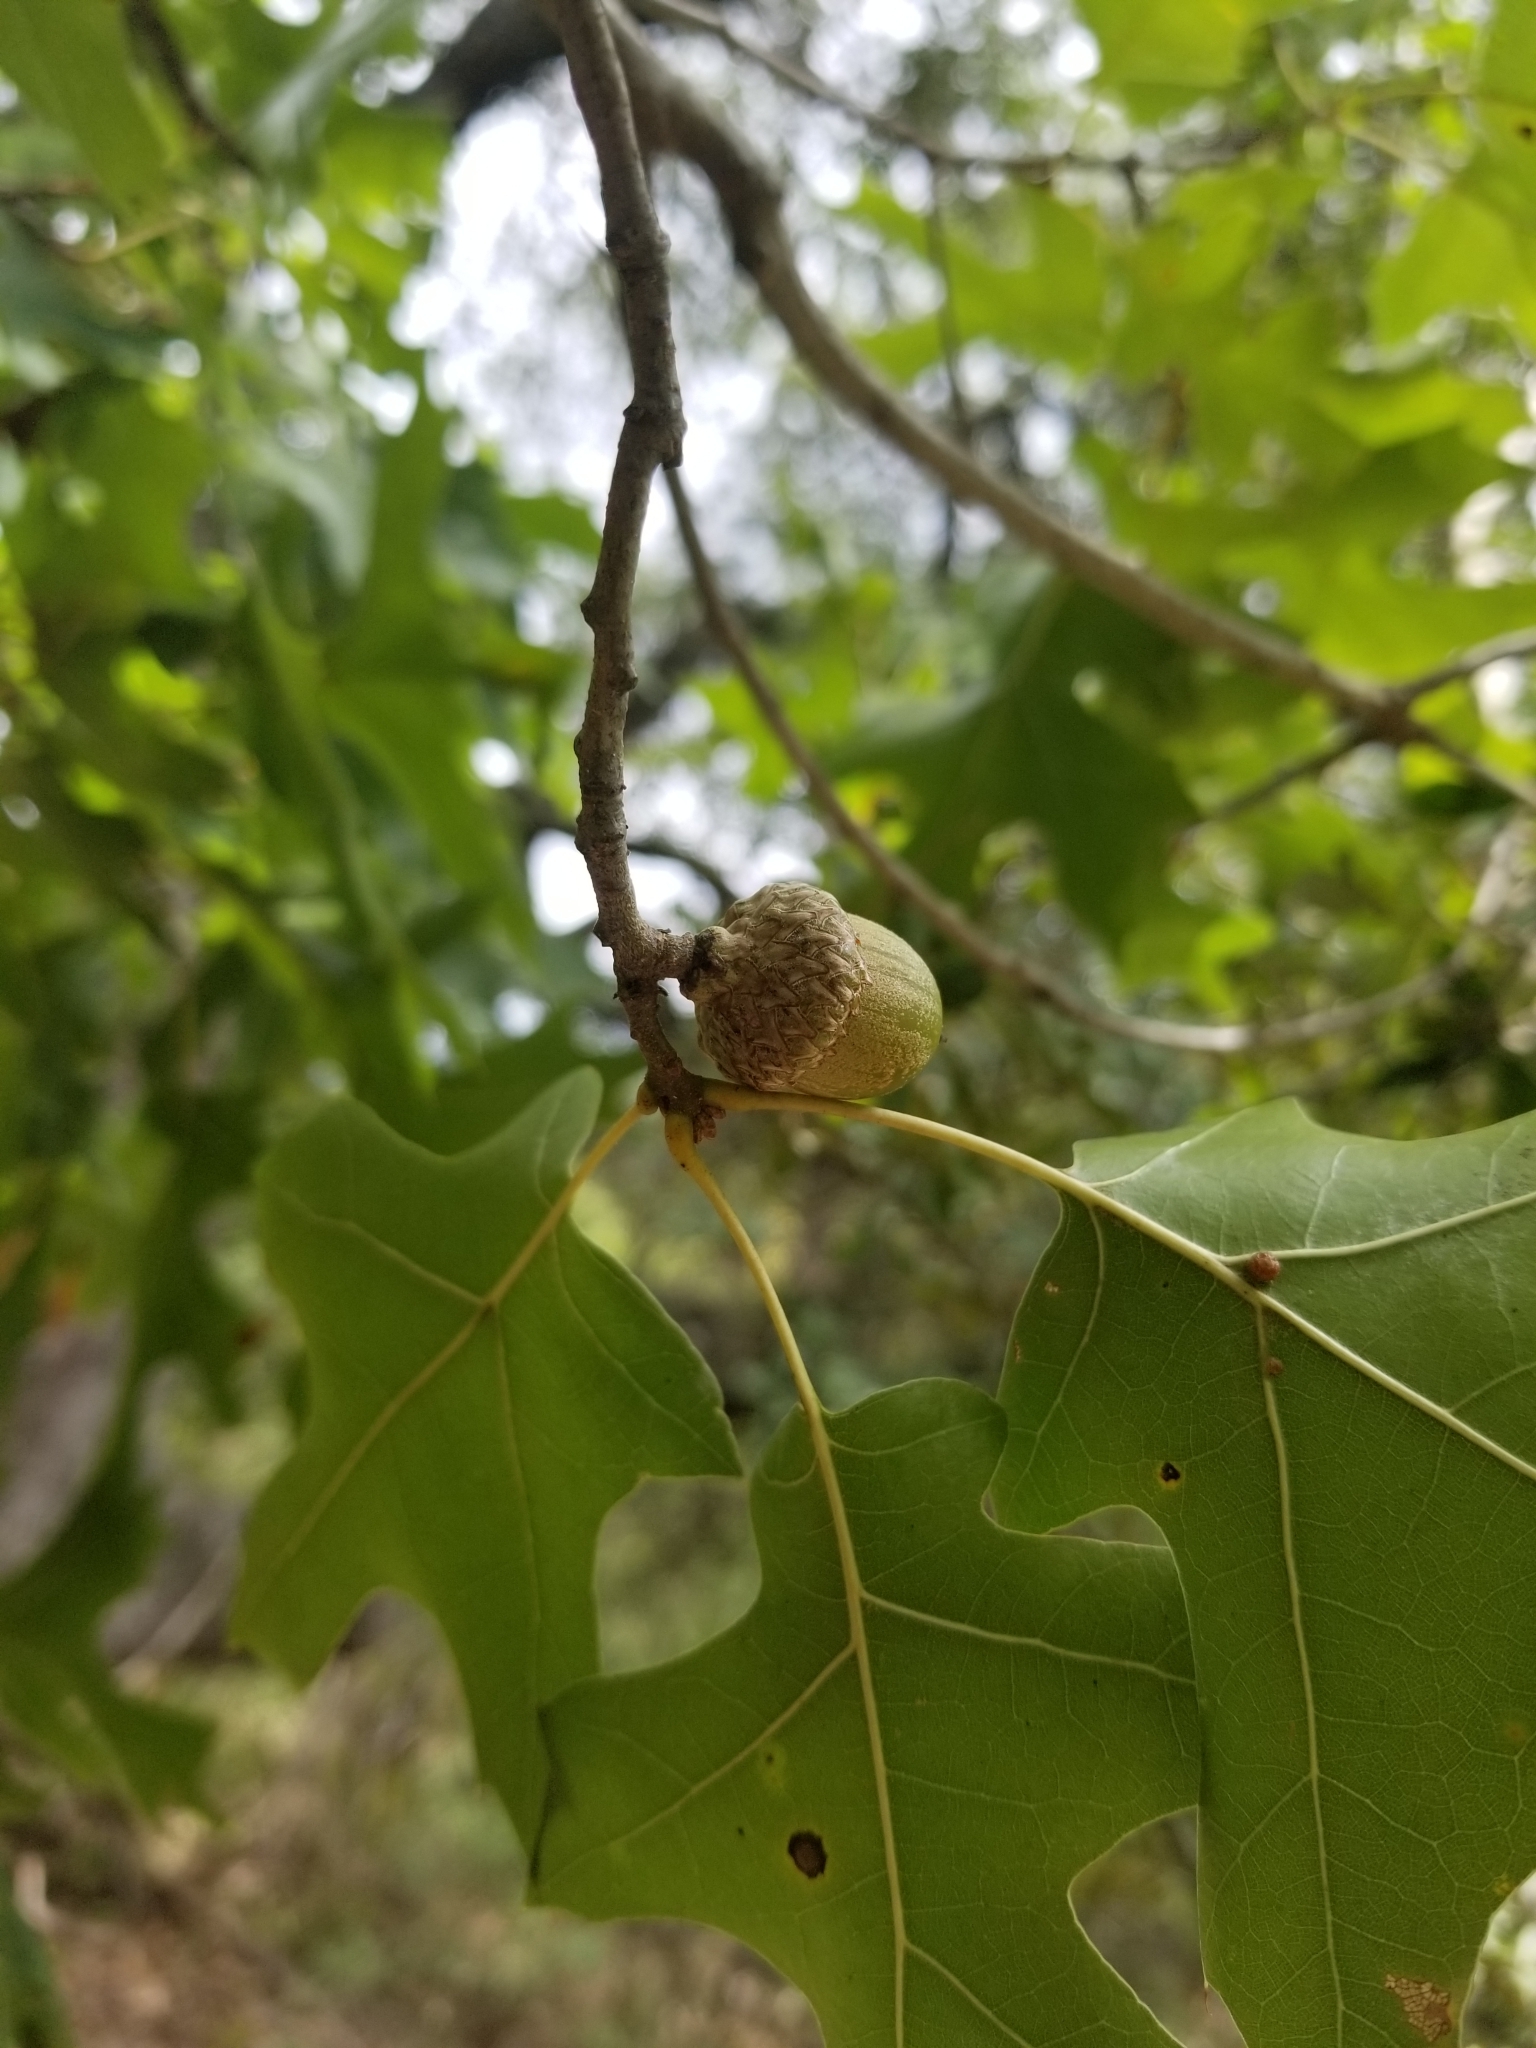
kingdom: Plantae
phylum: Tracheophyta
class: Magnoliopsida
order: Fagales
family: Fagaceae
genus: Quercus
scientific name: Quercus buckleyi
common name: Buckley oak
